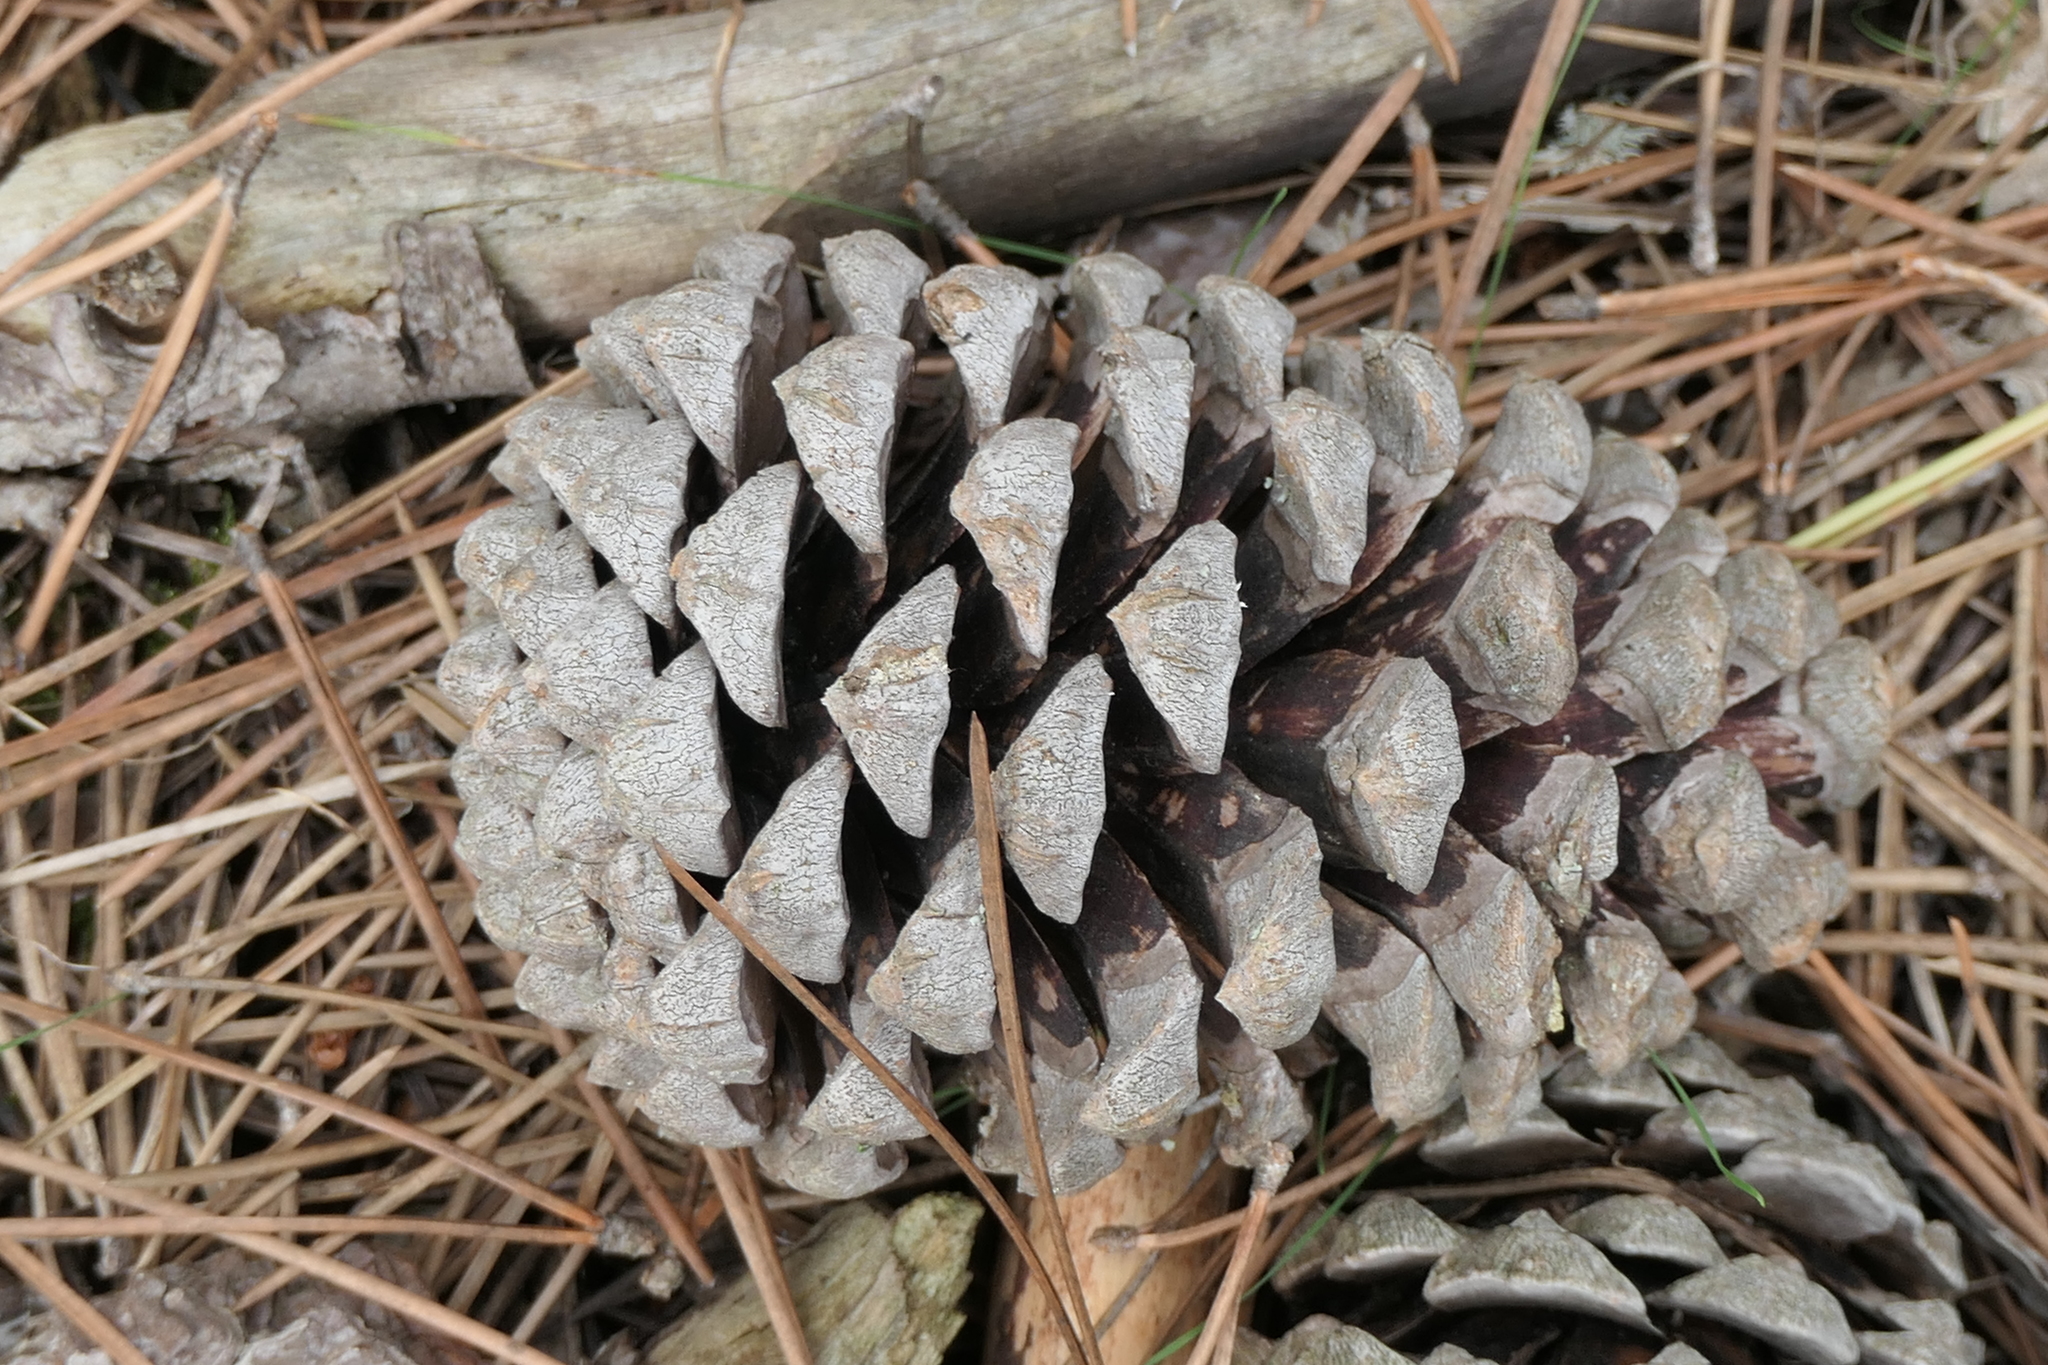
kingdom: Plantae
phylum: Tracheophyta
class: Pinopsida
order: Pinales
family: Pinaceae
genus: Pinus
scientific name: Pinus pinaster
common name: Maritime pine
